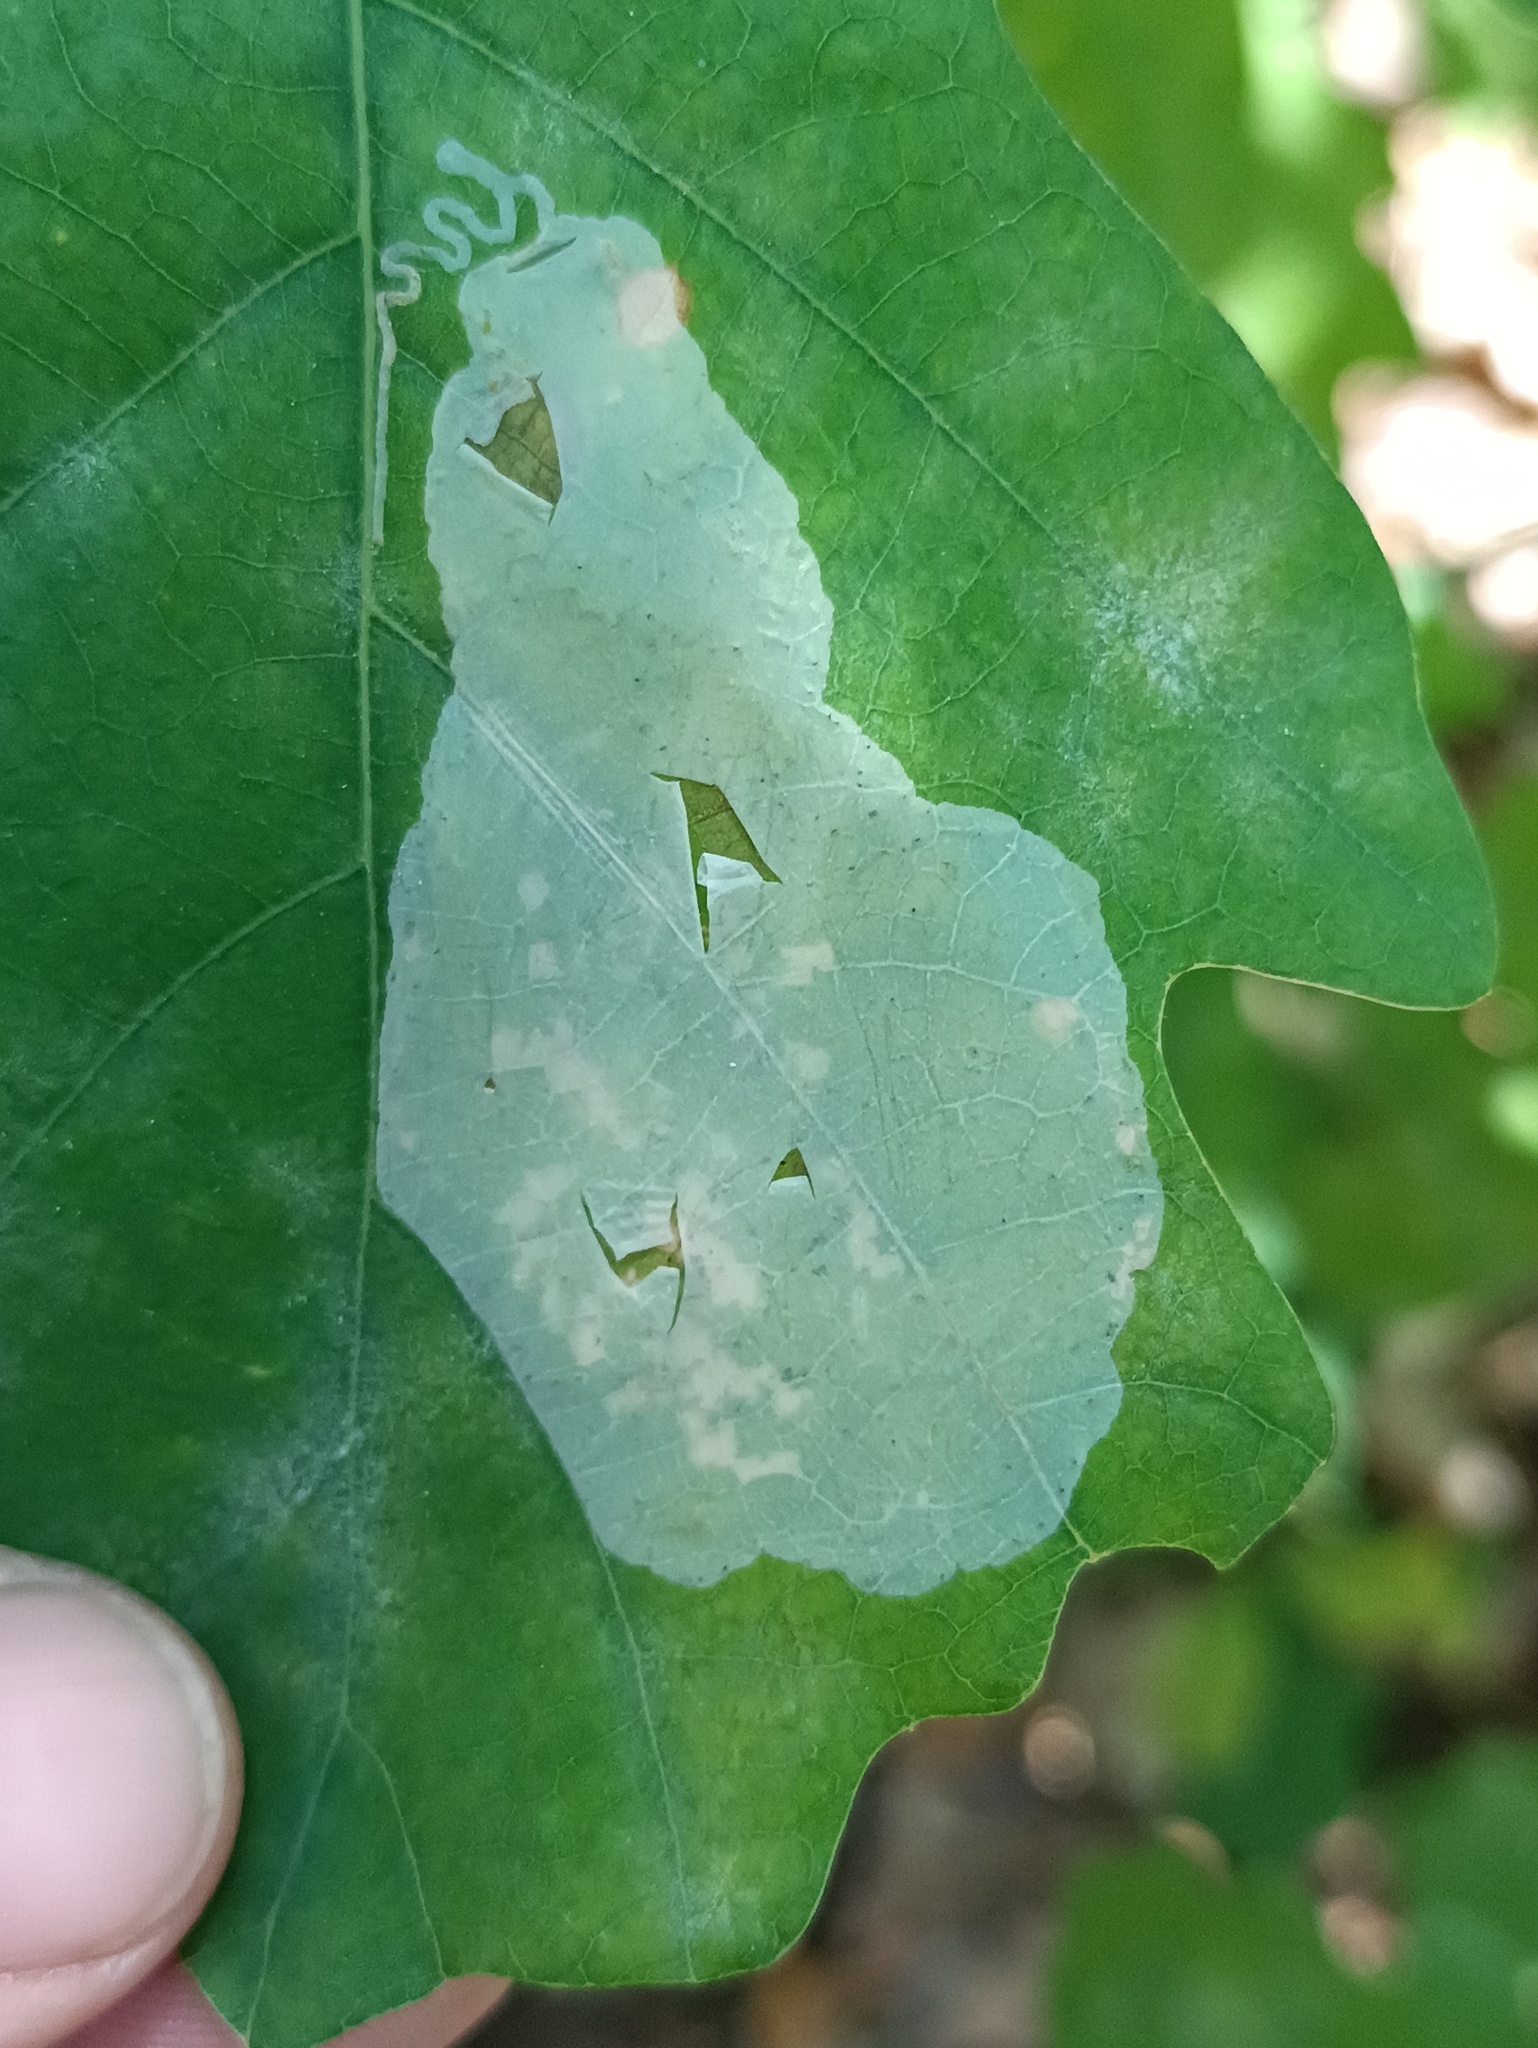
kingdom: Animalia
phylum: Arthropoda
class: Insecta
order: Lepidoptera
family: Gracillariidae
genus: Acrocercops
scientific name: Acrocercops brongniardella
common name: Brown oak slender
